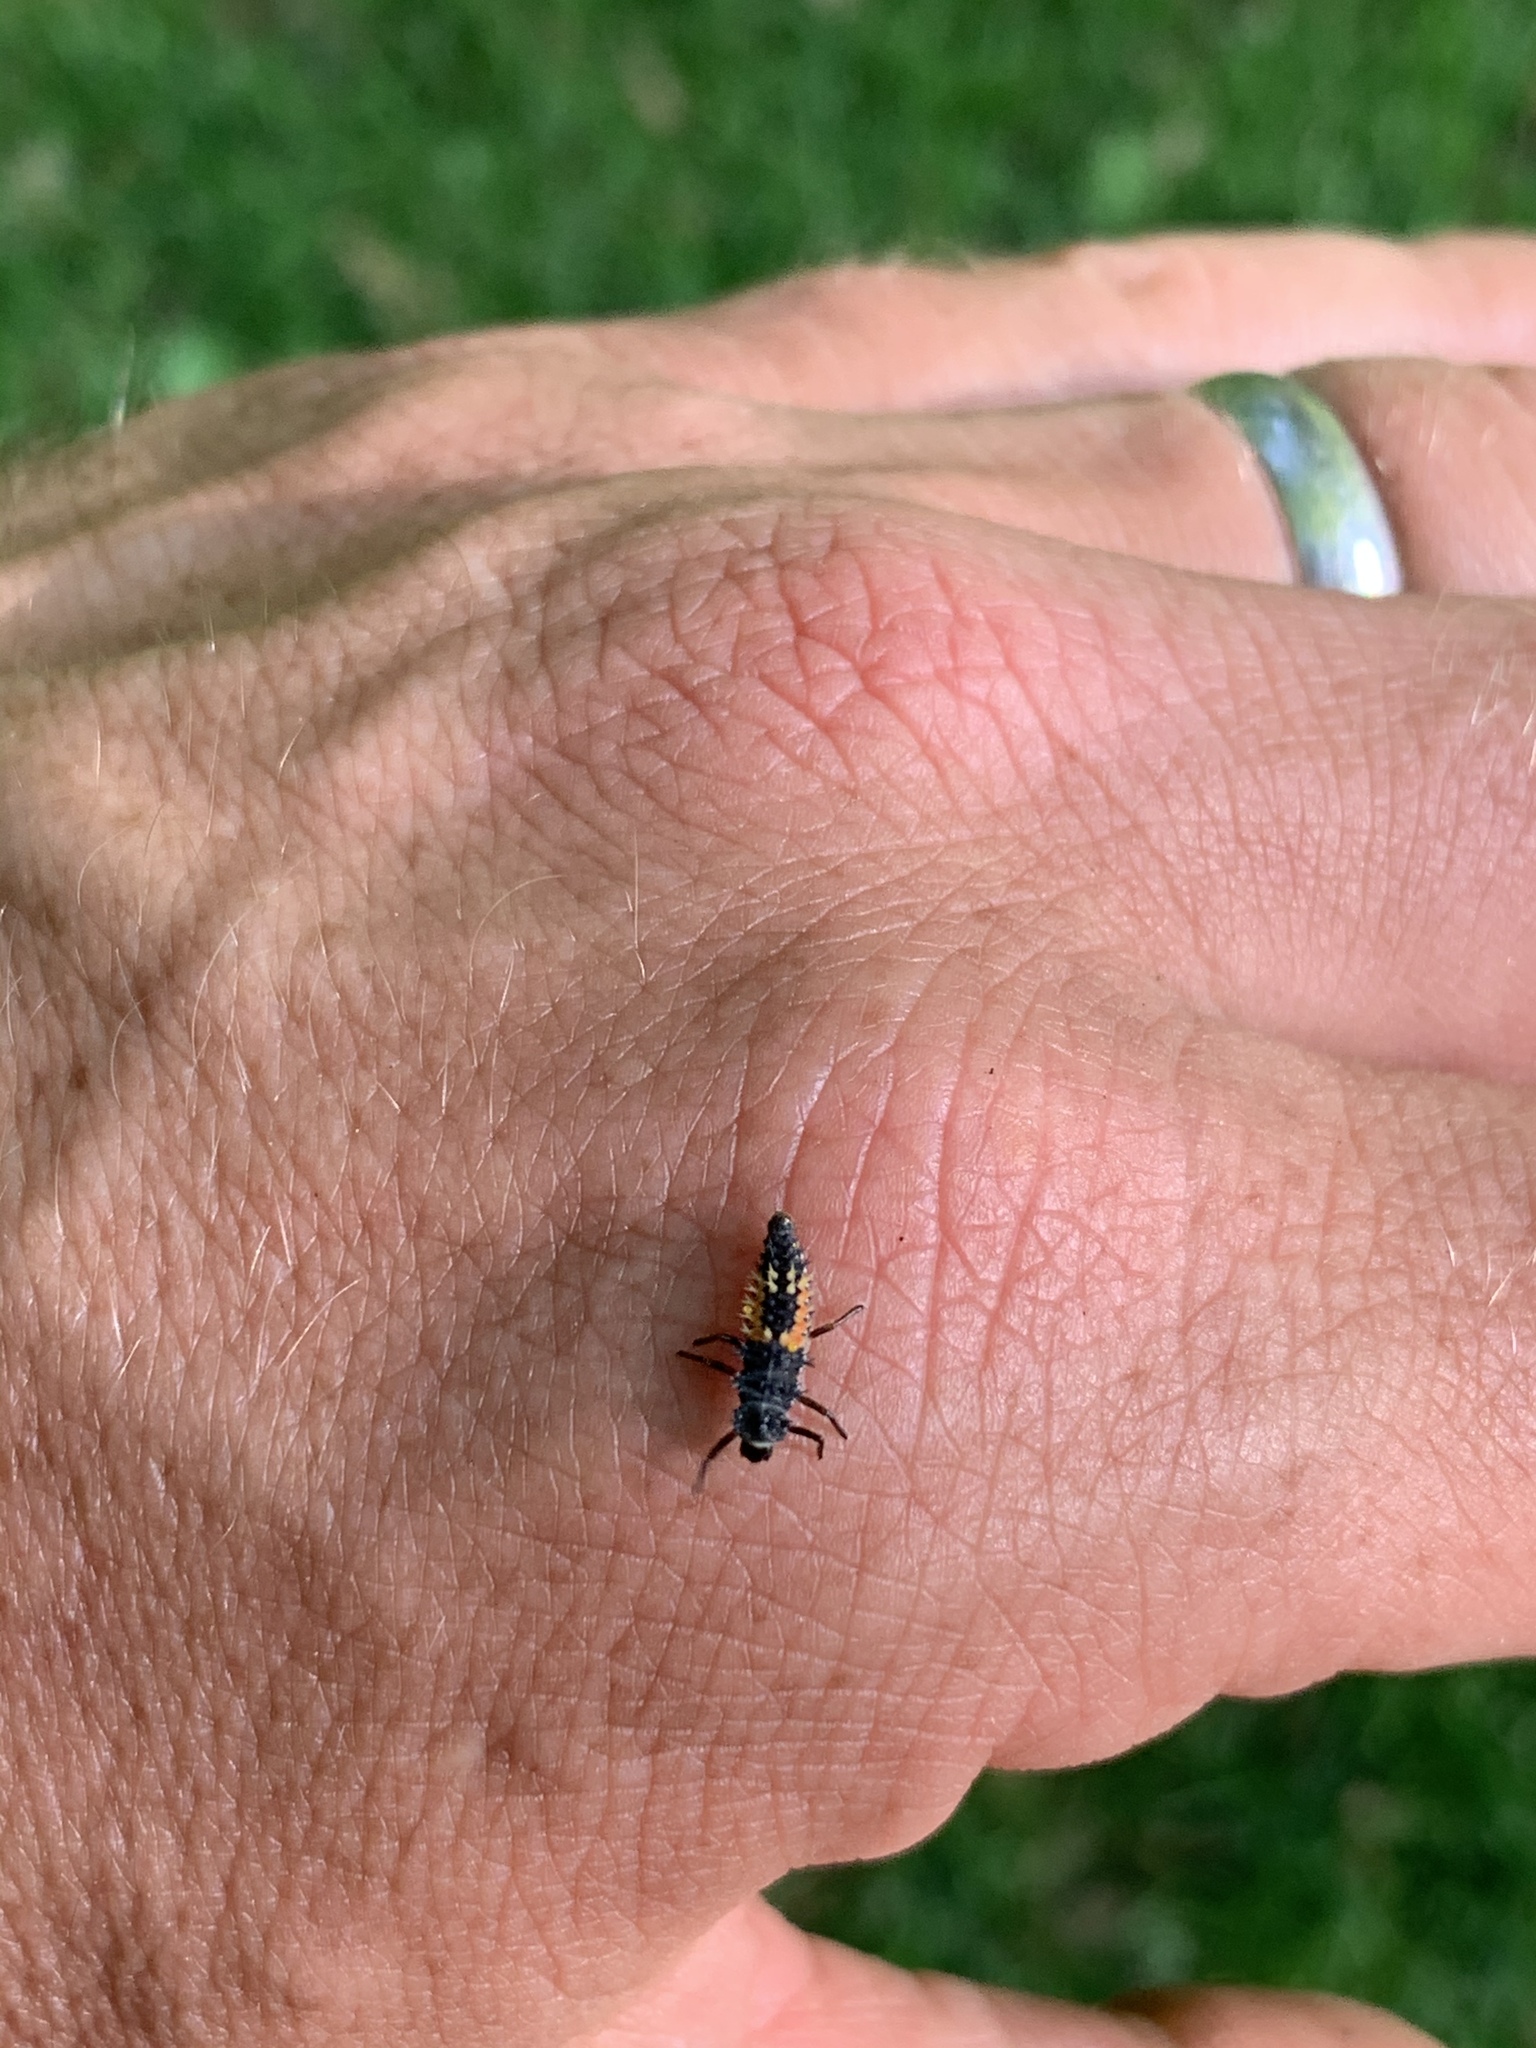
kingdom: Animalia
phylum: Arthropoda
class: Insecta
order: Coleoptera
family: Coccinellidae
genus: Harmonia
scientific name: Harmonia axyridis
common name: Harlequin ladybird
